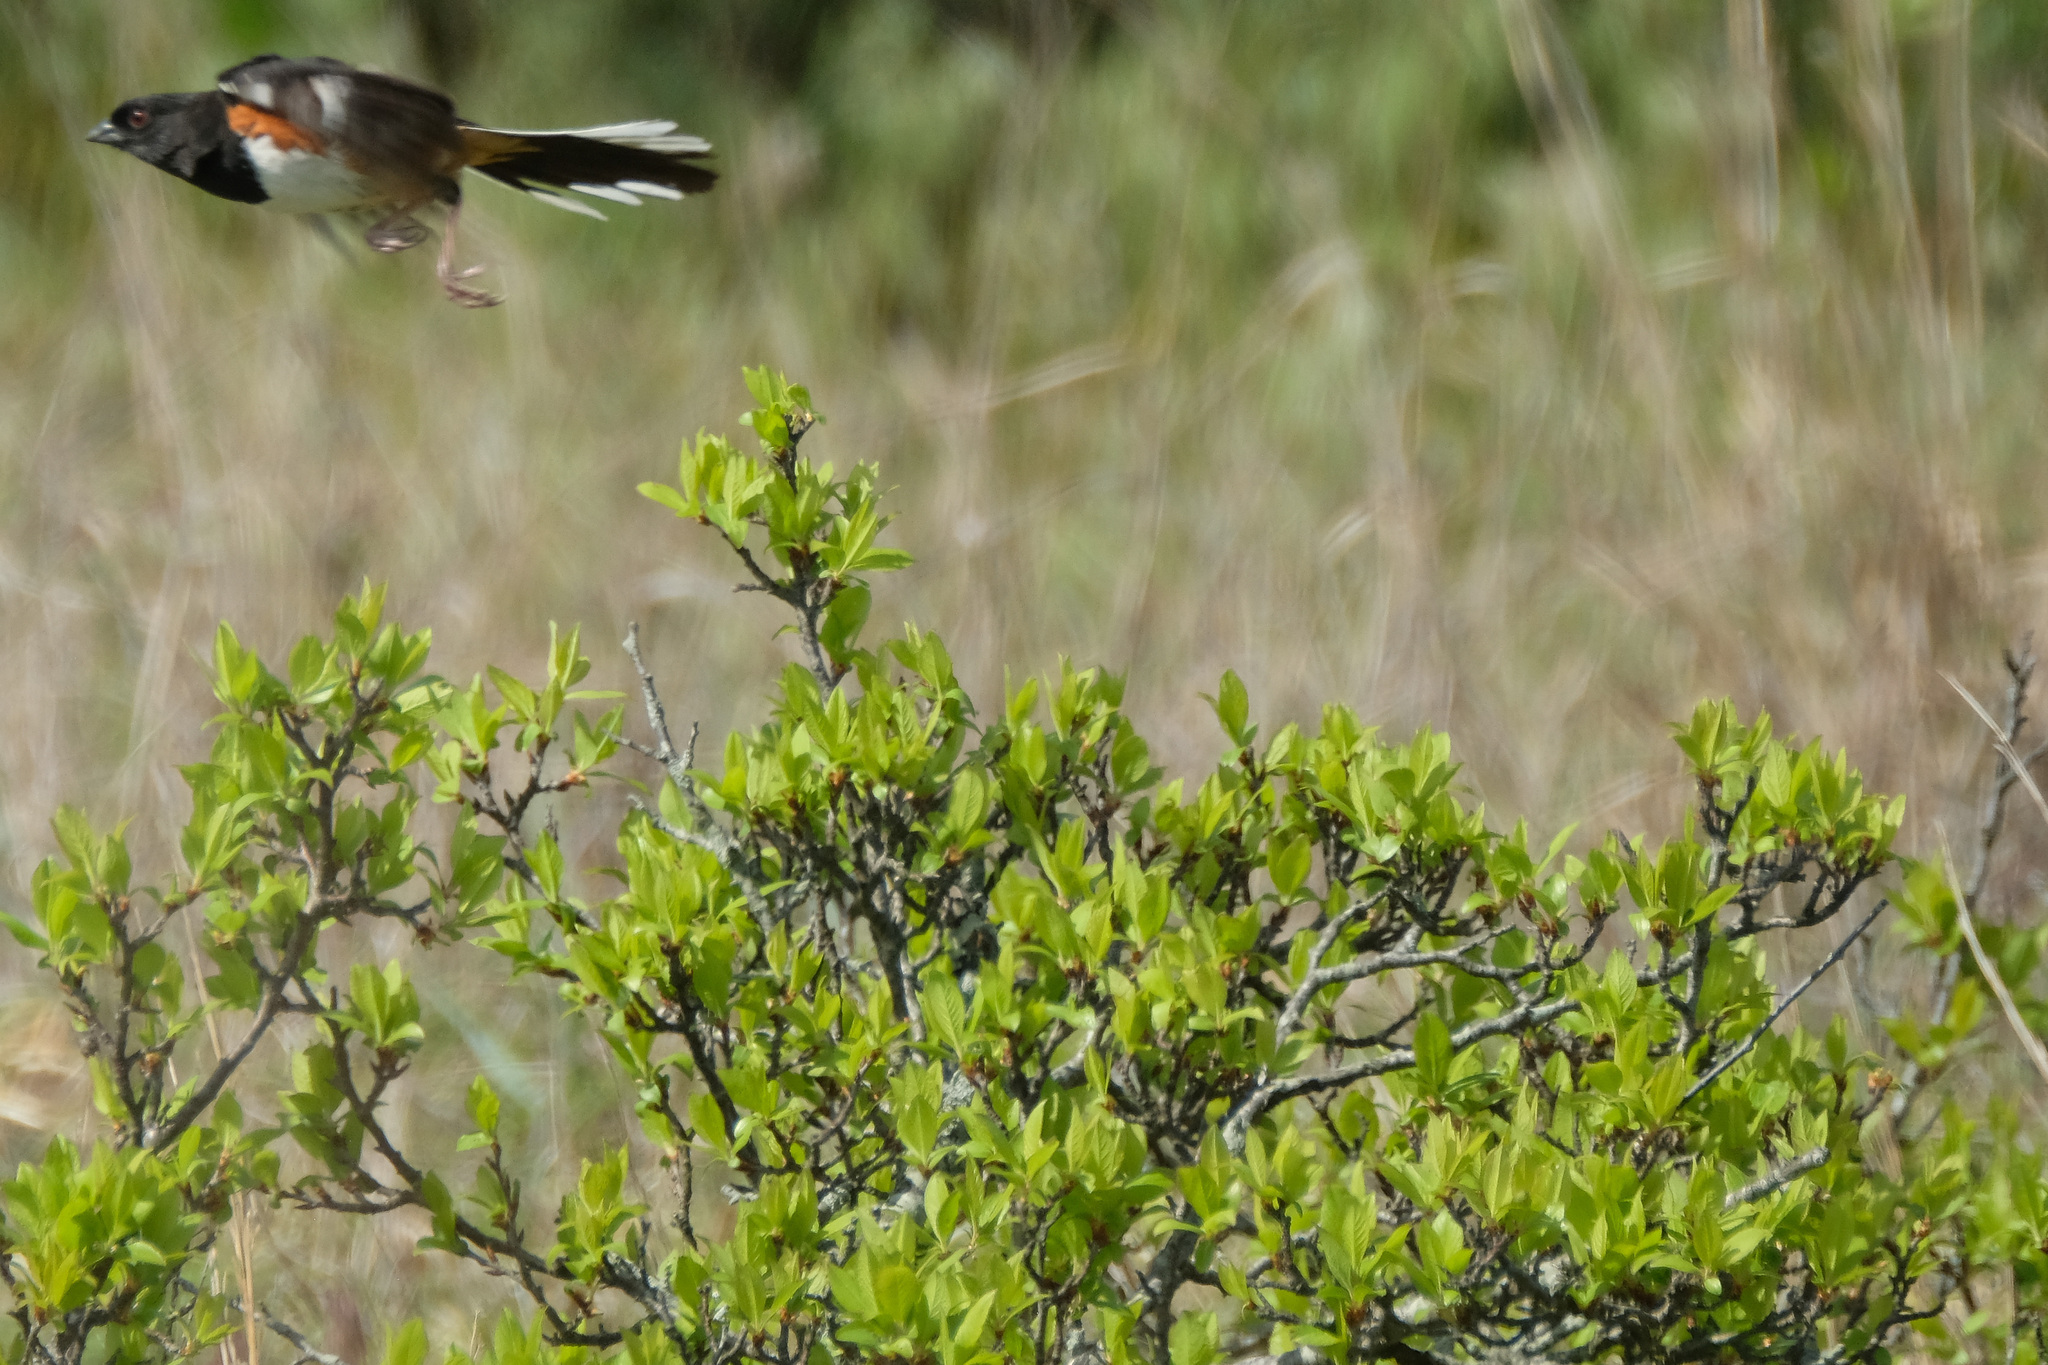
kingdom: Animalia
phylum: Chordata
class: Aves
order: Passeriformes
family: Passerellidae
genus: Pipilo
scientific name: Pipilo erythrophthalmus
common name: Eastern towhee
